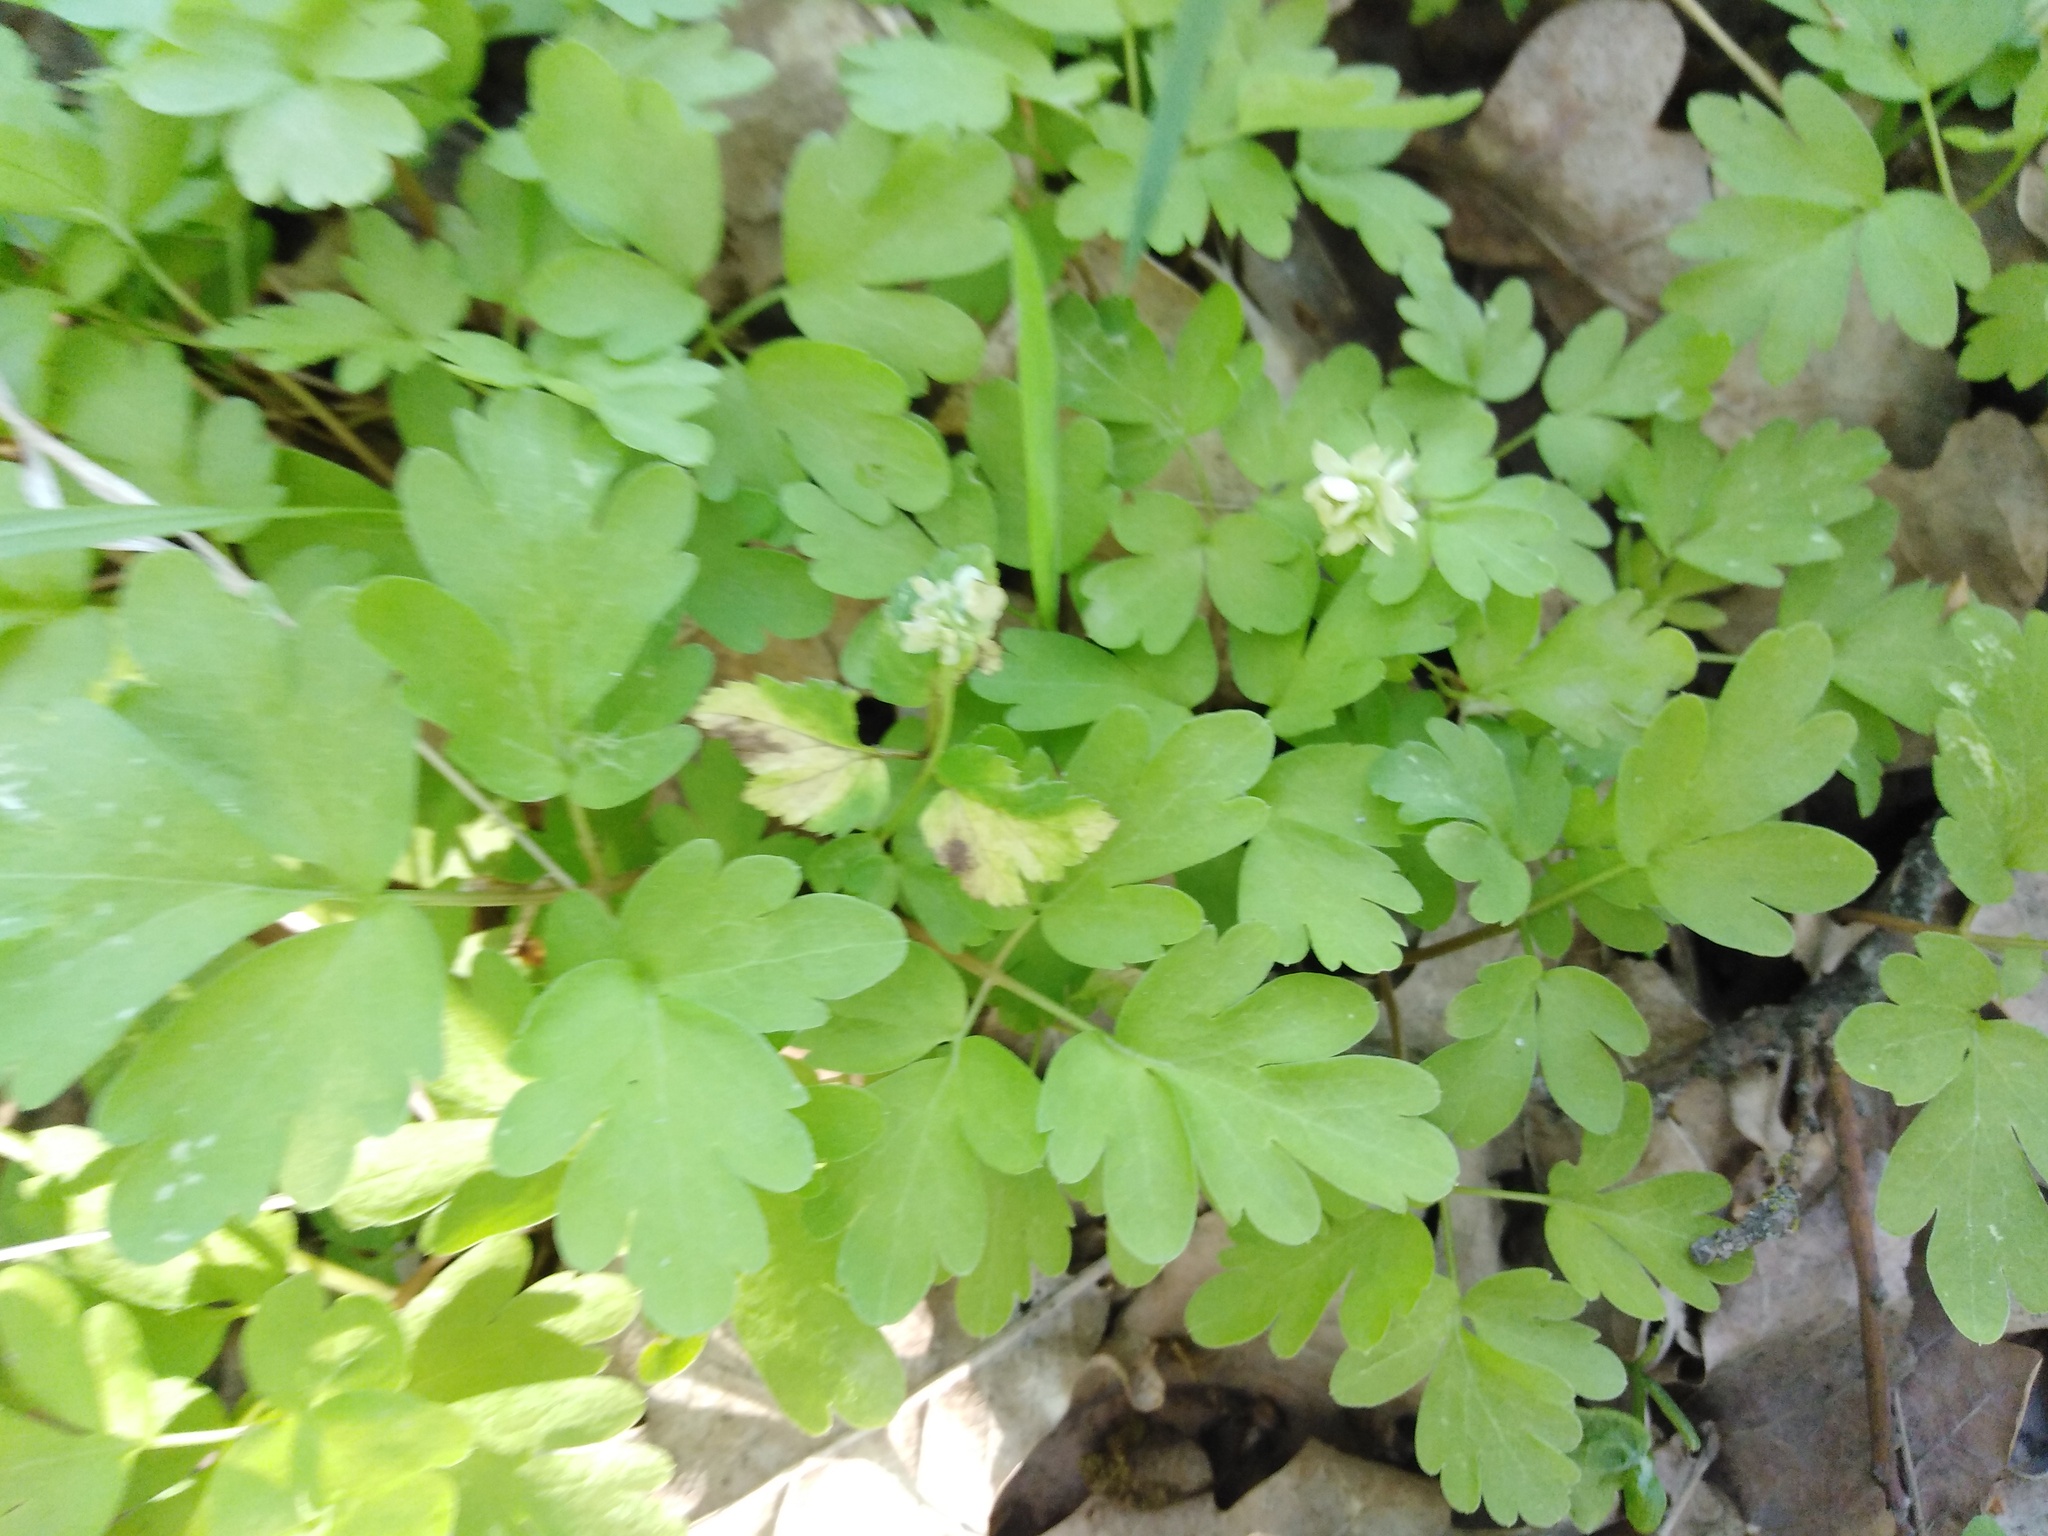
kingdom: Plantae
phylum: Tracheophyta
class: Magnoliopsida
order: Dipsacales
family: Viburnaceae
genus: Adoxa
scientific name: Adoxa moschatellina
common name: Moschatel
